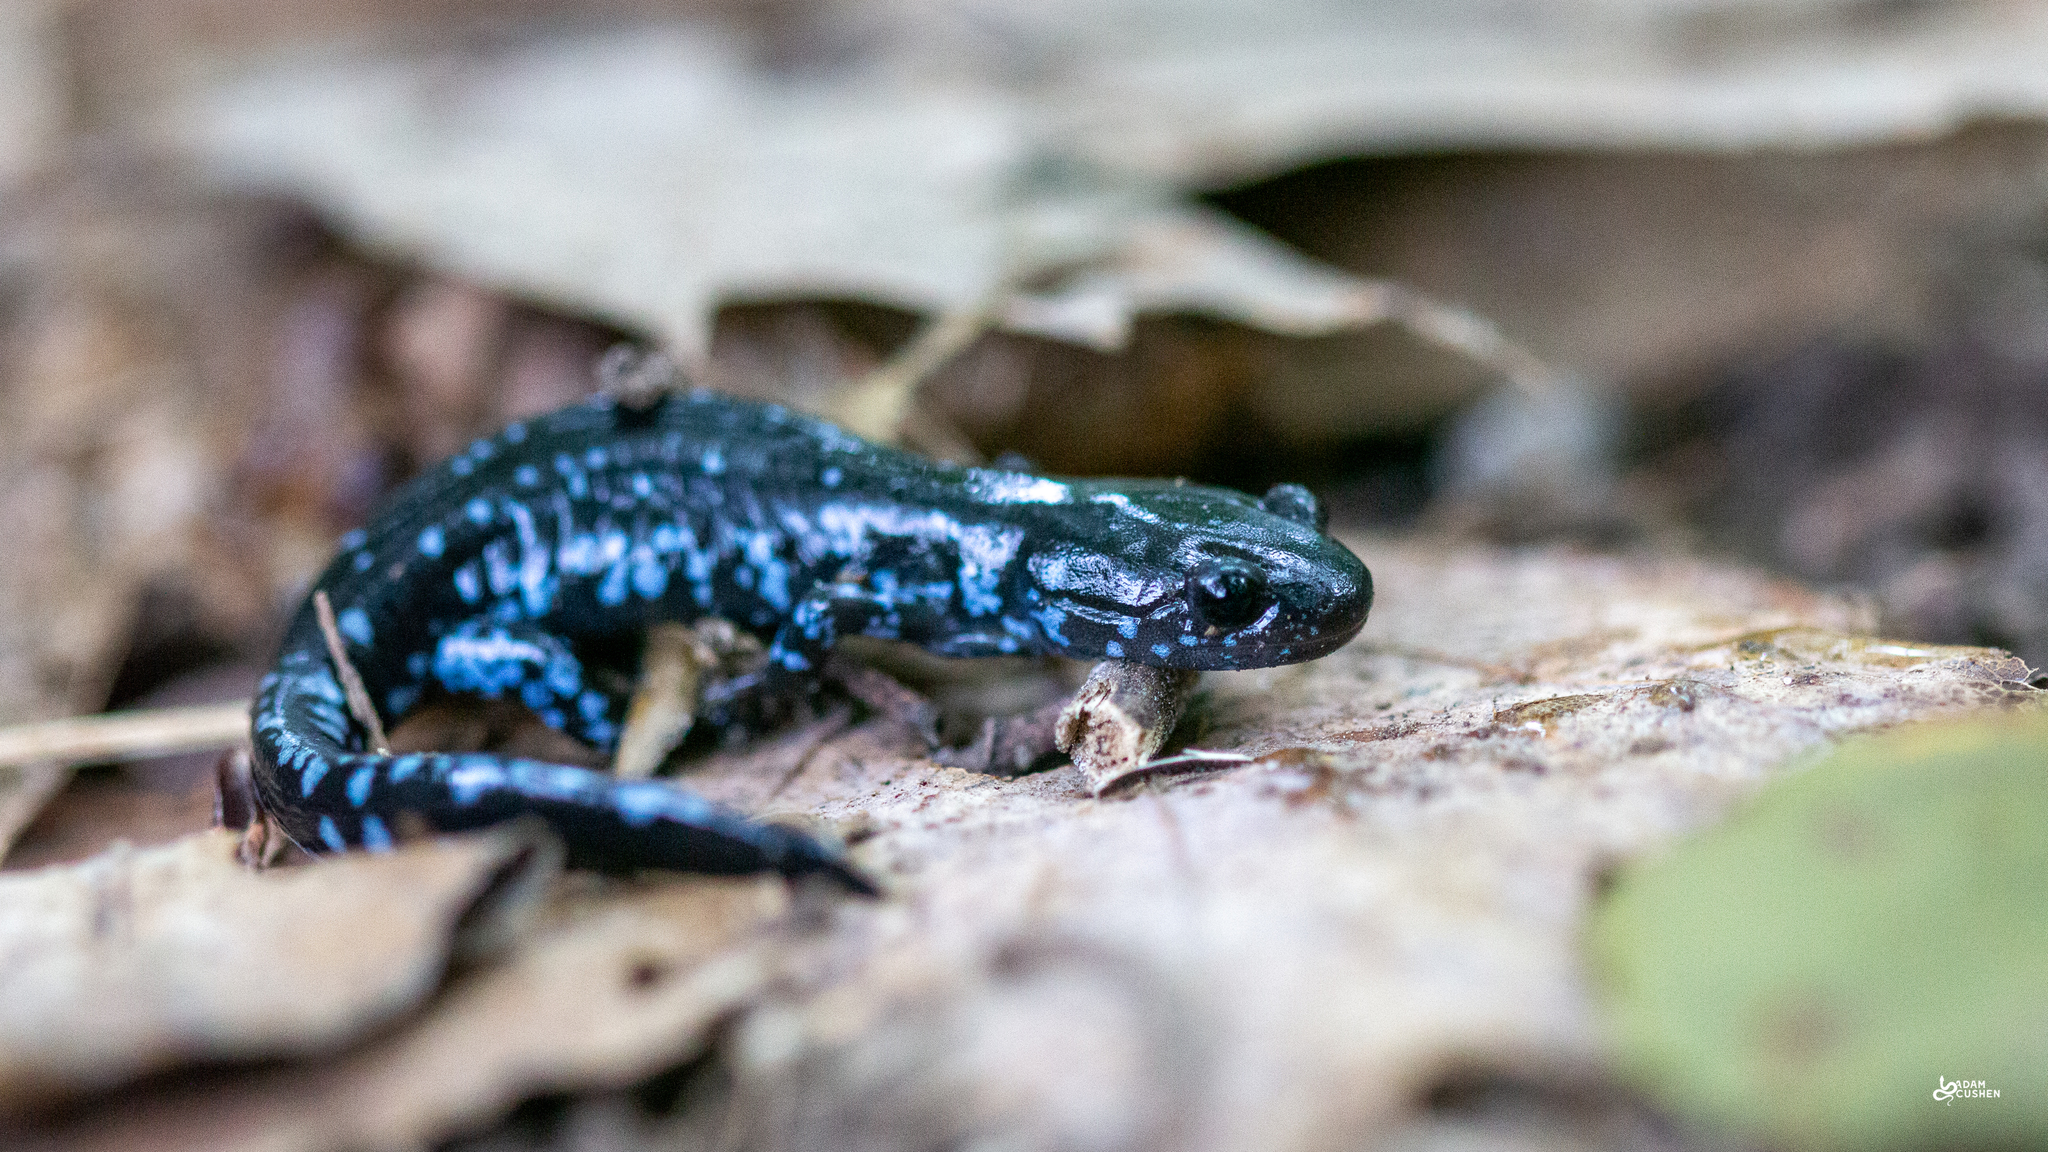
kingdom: Animalia
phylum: Chordata
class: Amphibia
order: Caudata
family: Ambystomatidae
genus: Ambystoma
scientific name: Ambystoma laterale
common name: Blue-spotted salamander
